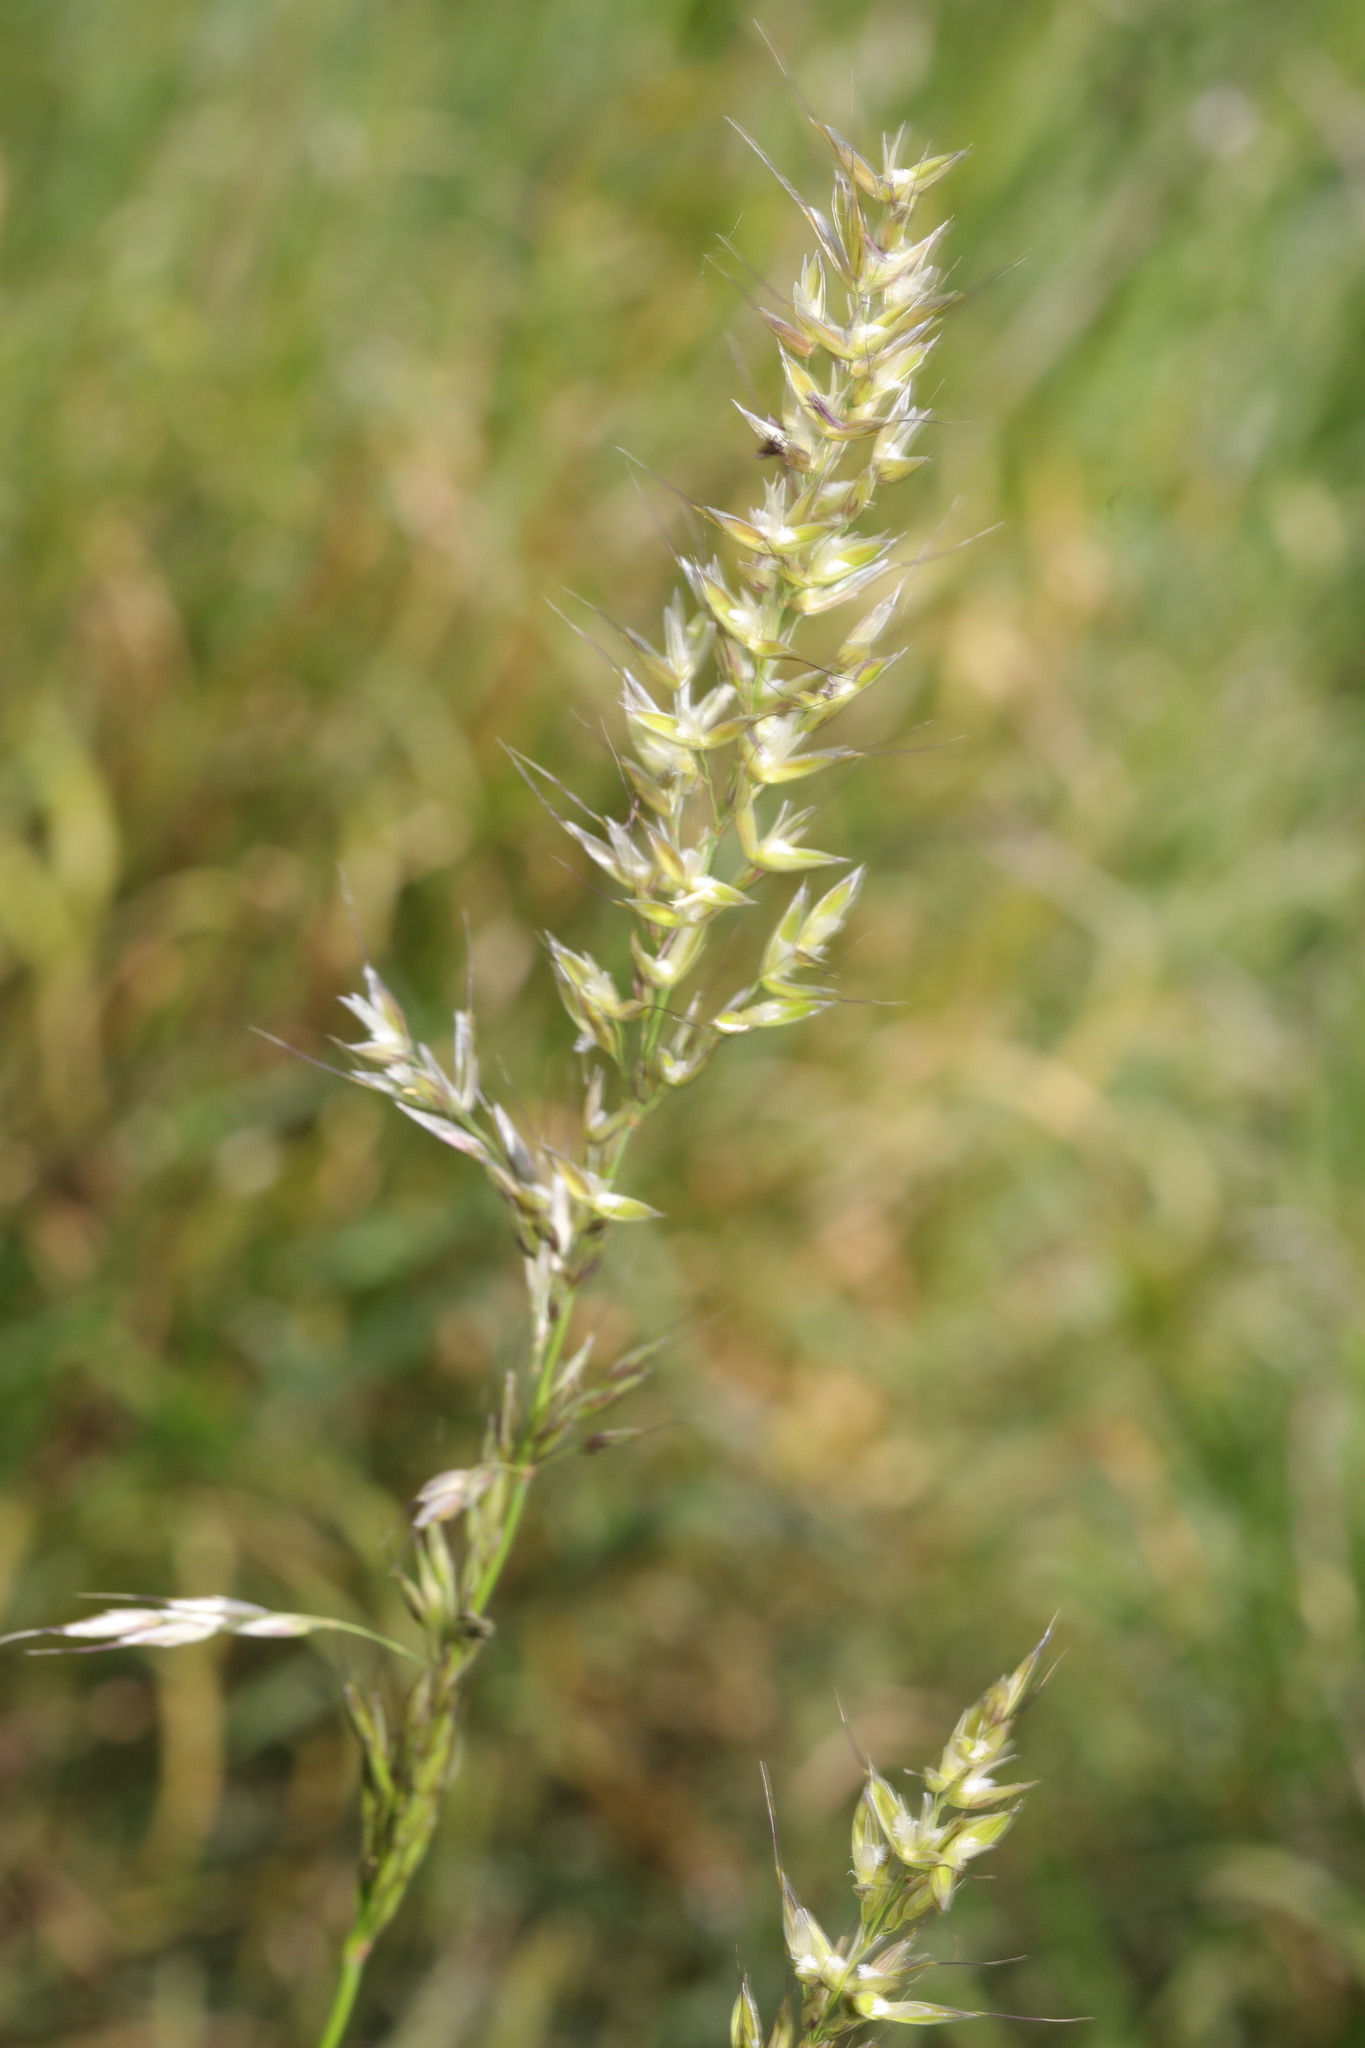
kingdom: Plantae
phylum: Tracheophyta
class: Liliopsida
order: Poales
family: Poaceae
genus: Arrhenatherum
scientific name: Arrhenatherum elatius
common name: Tall oatgrass
